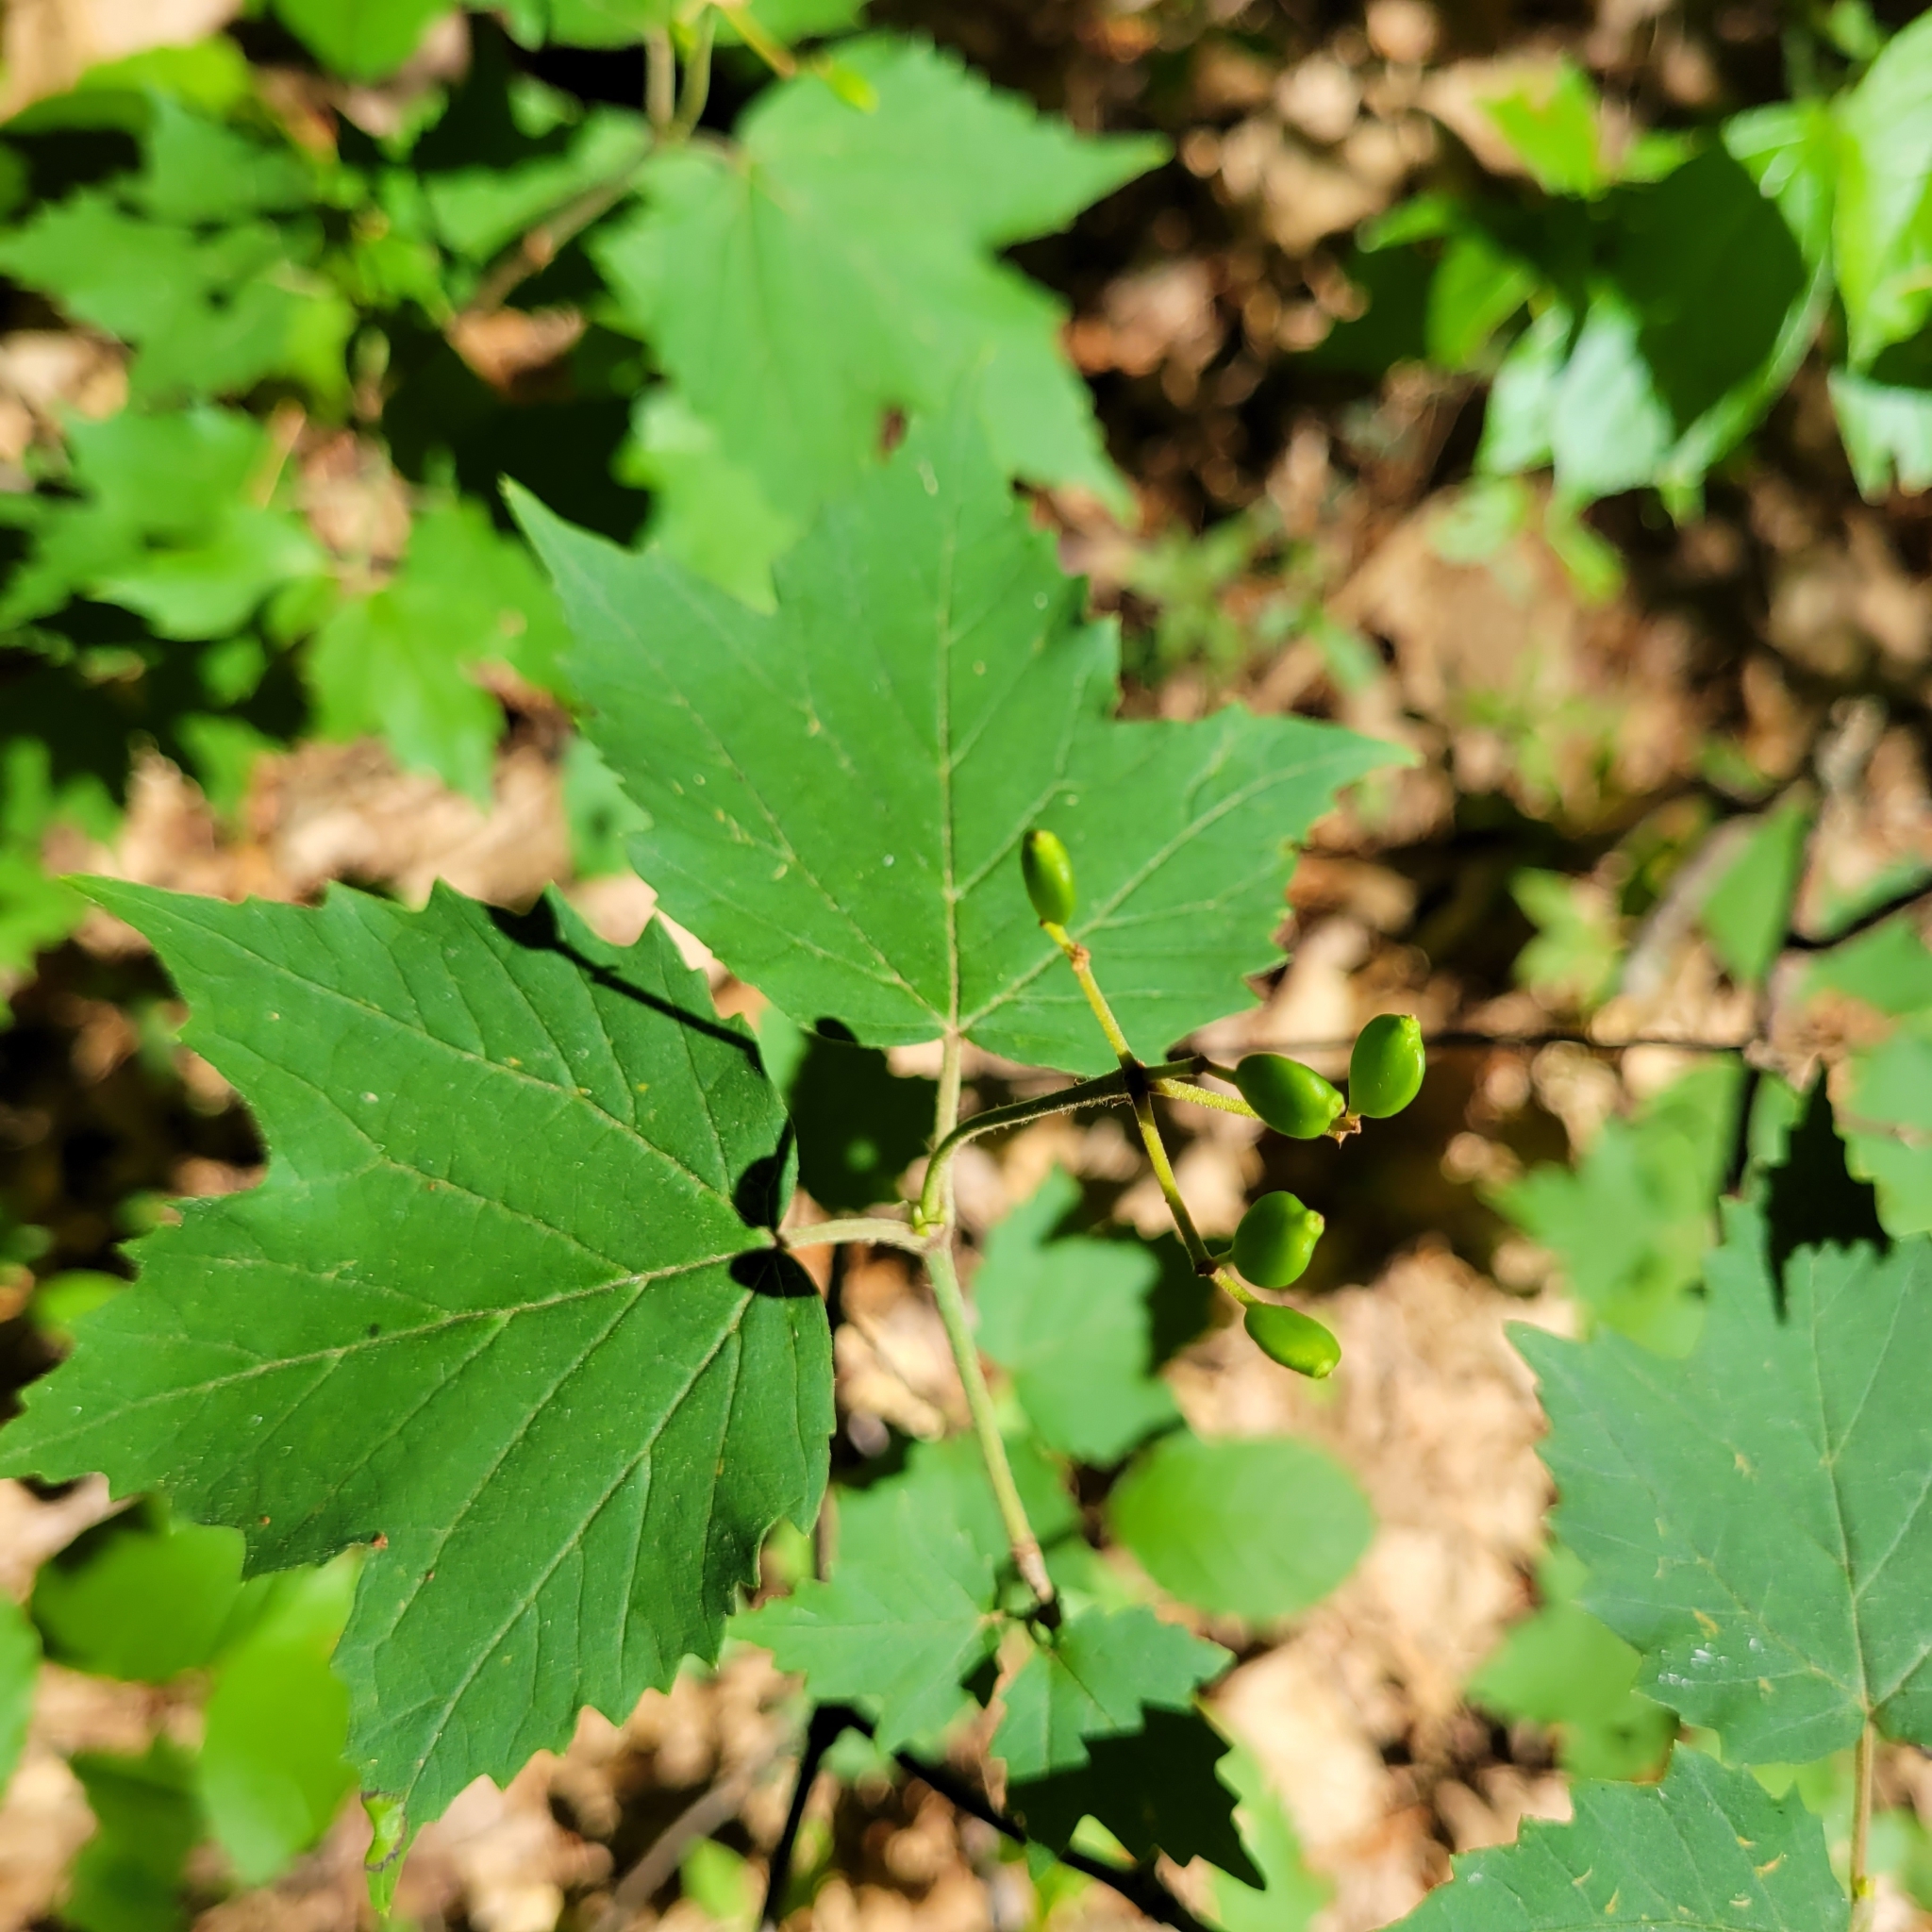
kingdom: Plantae
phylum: Tracheophyta
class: Magnoliopsida
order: Dipsacales
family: Viburnaceae
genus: Viburnum
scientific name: Viburnum acerifolium
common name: Dockmackie
